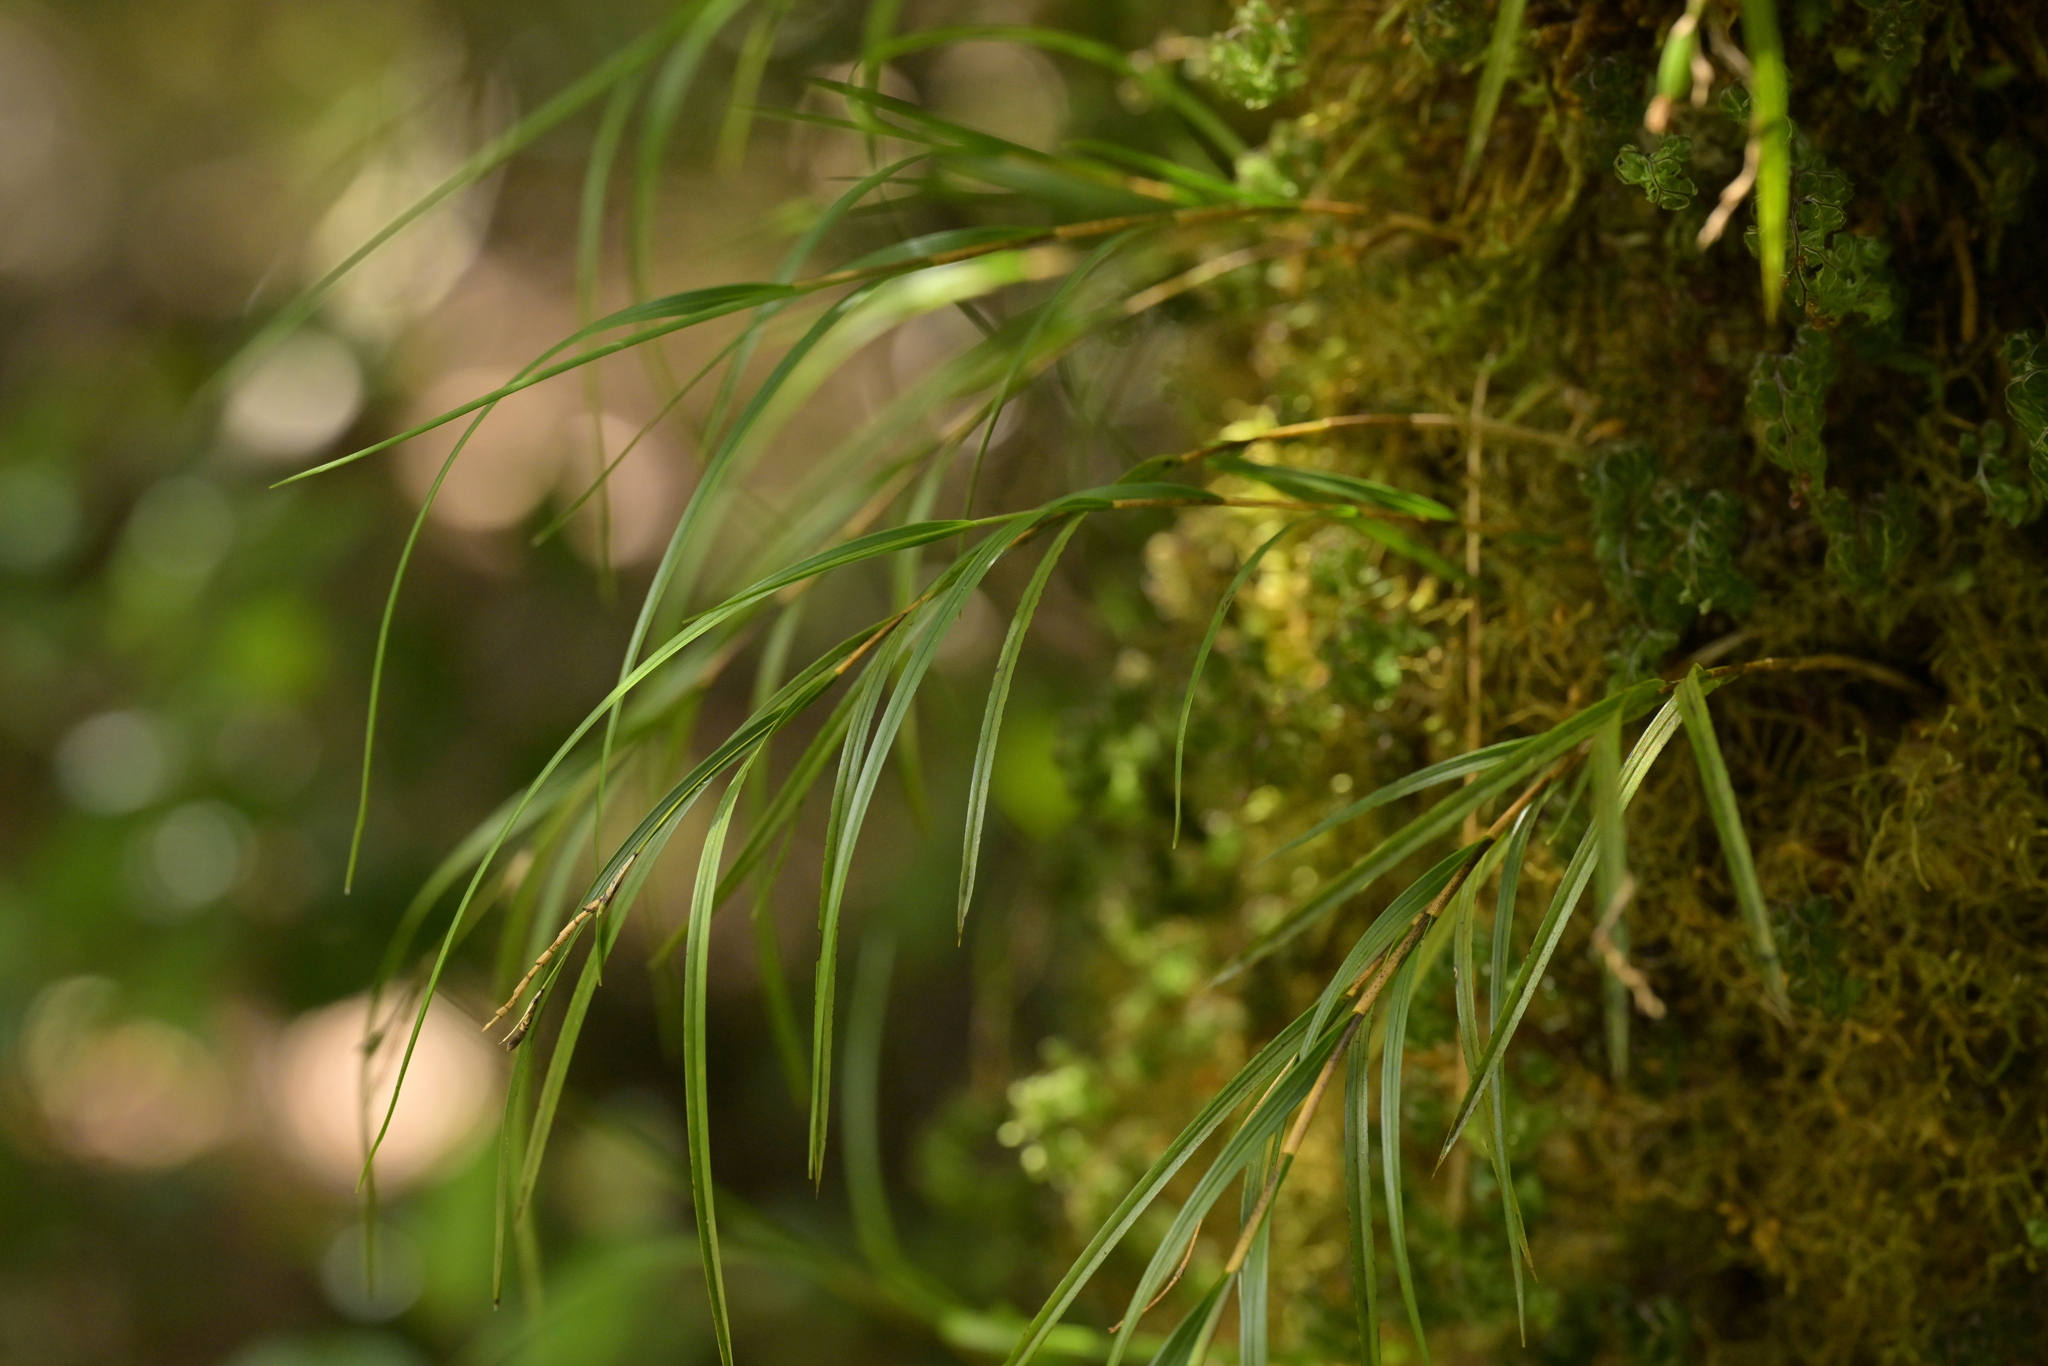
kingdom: Plantae
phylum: Tracheophyta
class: Liliopsida
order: Asparagales
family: Orchidaceae
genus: Earina
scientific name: Earina mucronata
